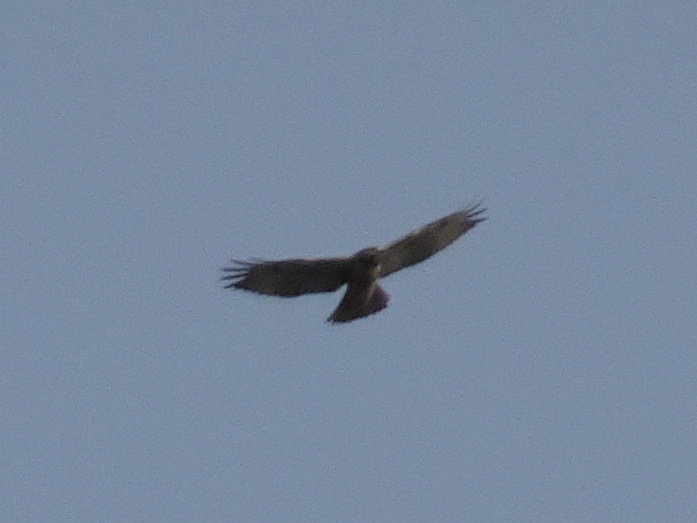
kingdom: Animalia
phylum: Chordata
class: Aves
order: Accipitriformes
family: Accipitridae
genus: Buteo
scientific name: Buteo jamaicensis
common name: Red-tailed hawk
